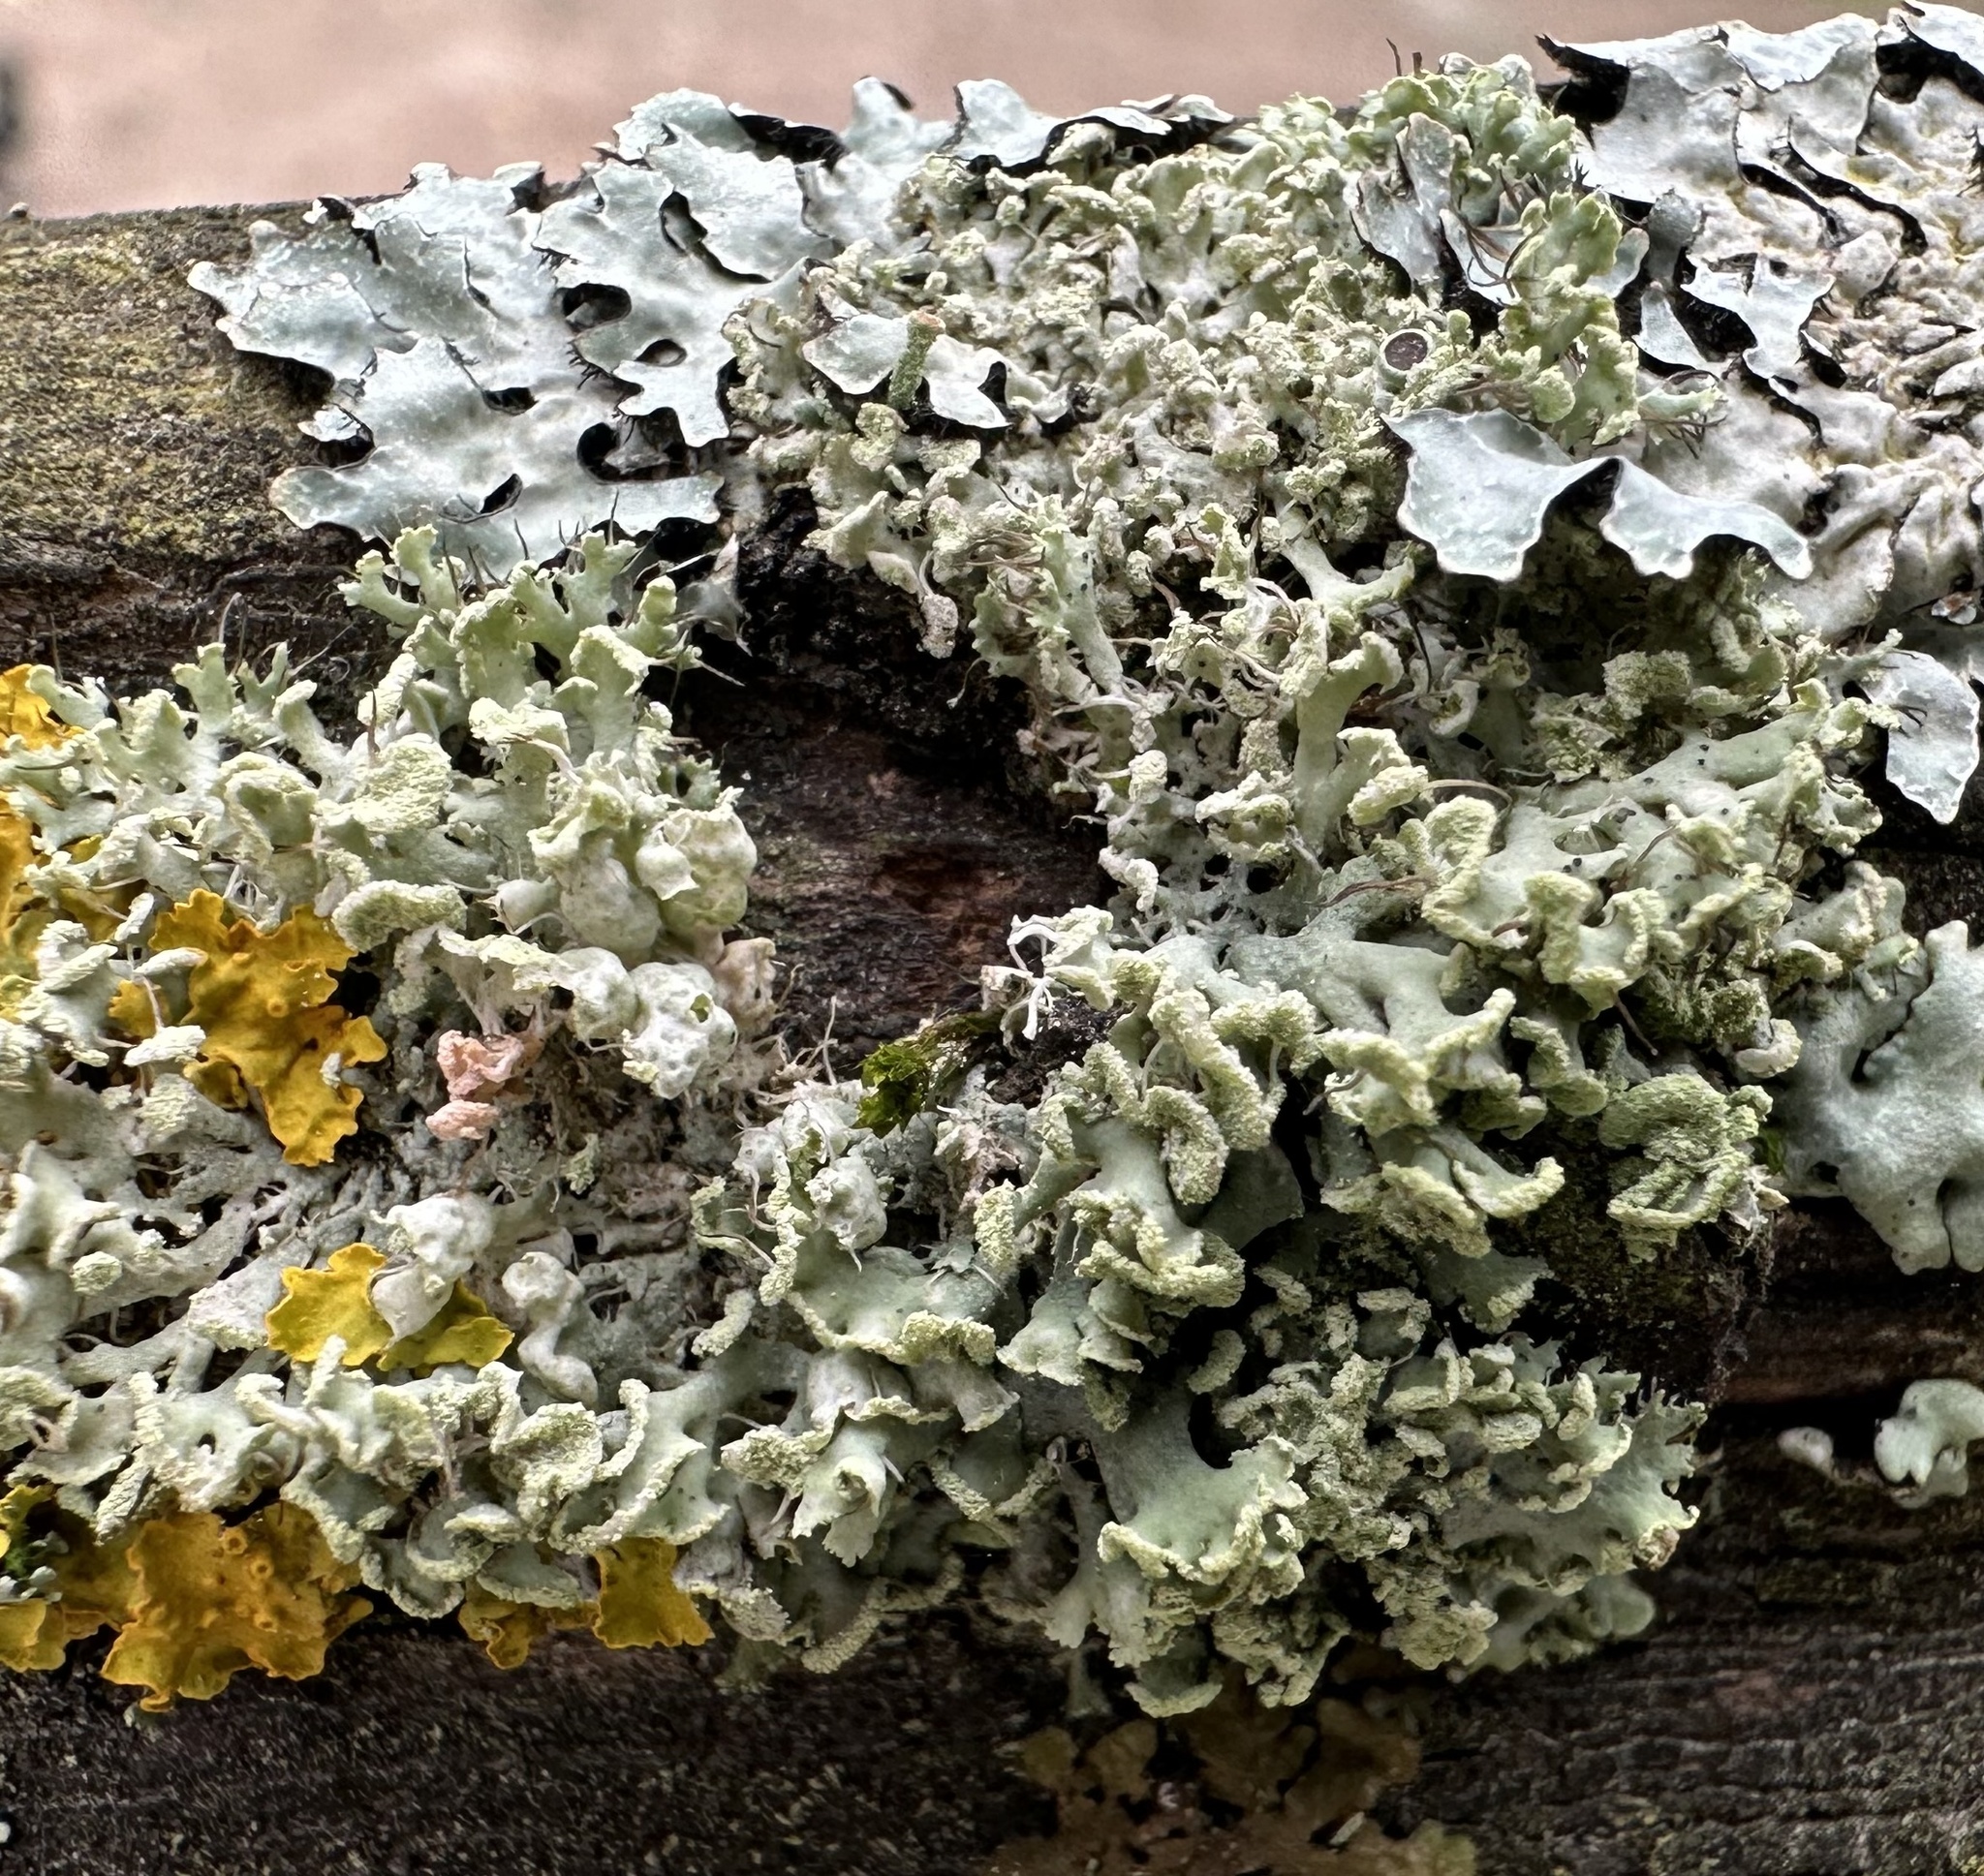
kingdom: Fungi
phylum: Ascomycota
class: Lecanoromycetes
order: Caliciales
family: Physciaceae
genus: Physcia
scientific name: Physcia tenella
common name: Fringed rosette lichen
